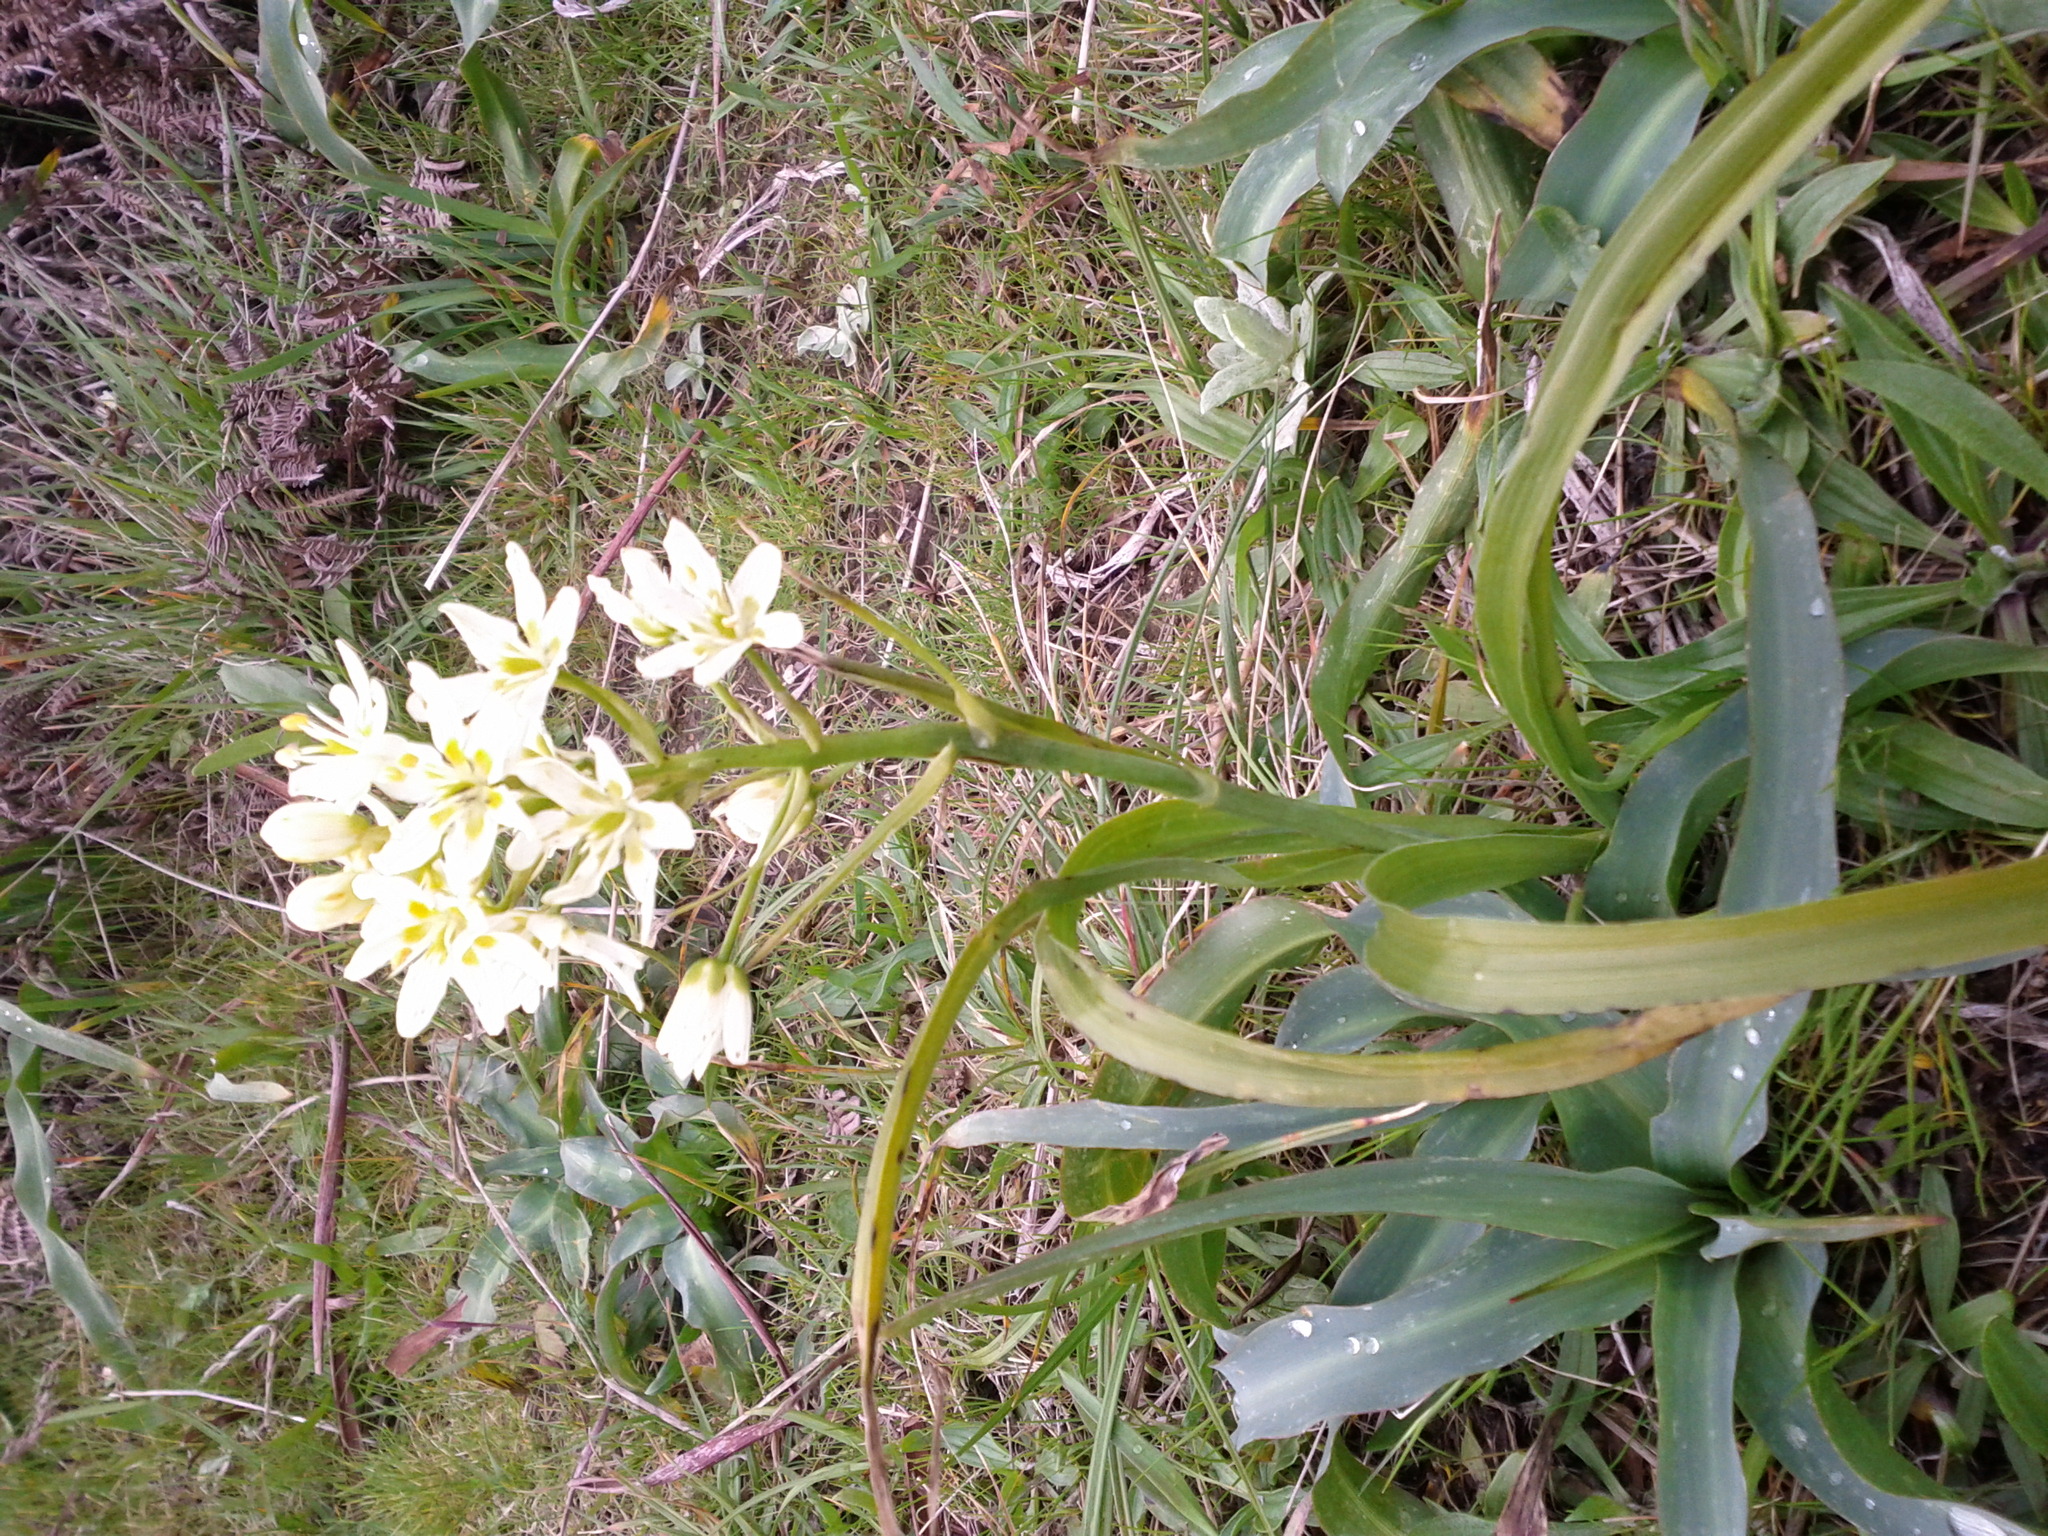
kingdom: Plantae
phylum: Tracheophyta
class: Liliopsida
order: Liliales
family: Melanthiaceae
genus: Toxicoscordion
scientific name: Toxicoscordion fremontii
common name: Fremont's death camas
